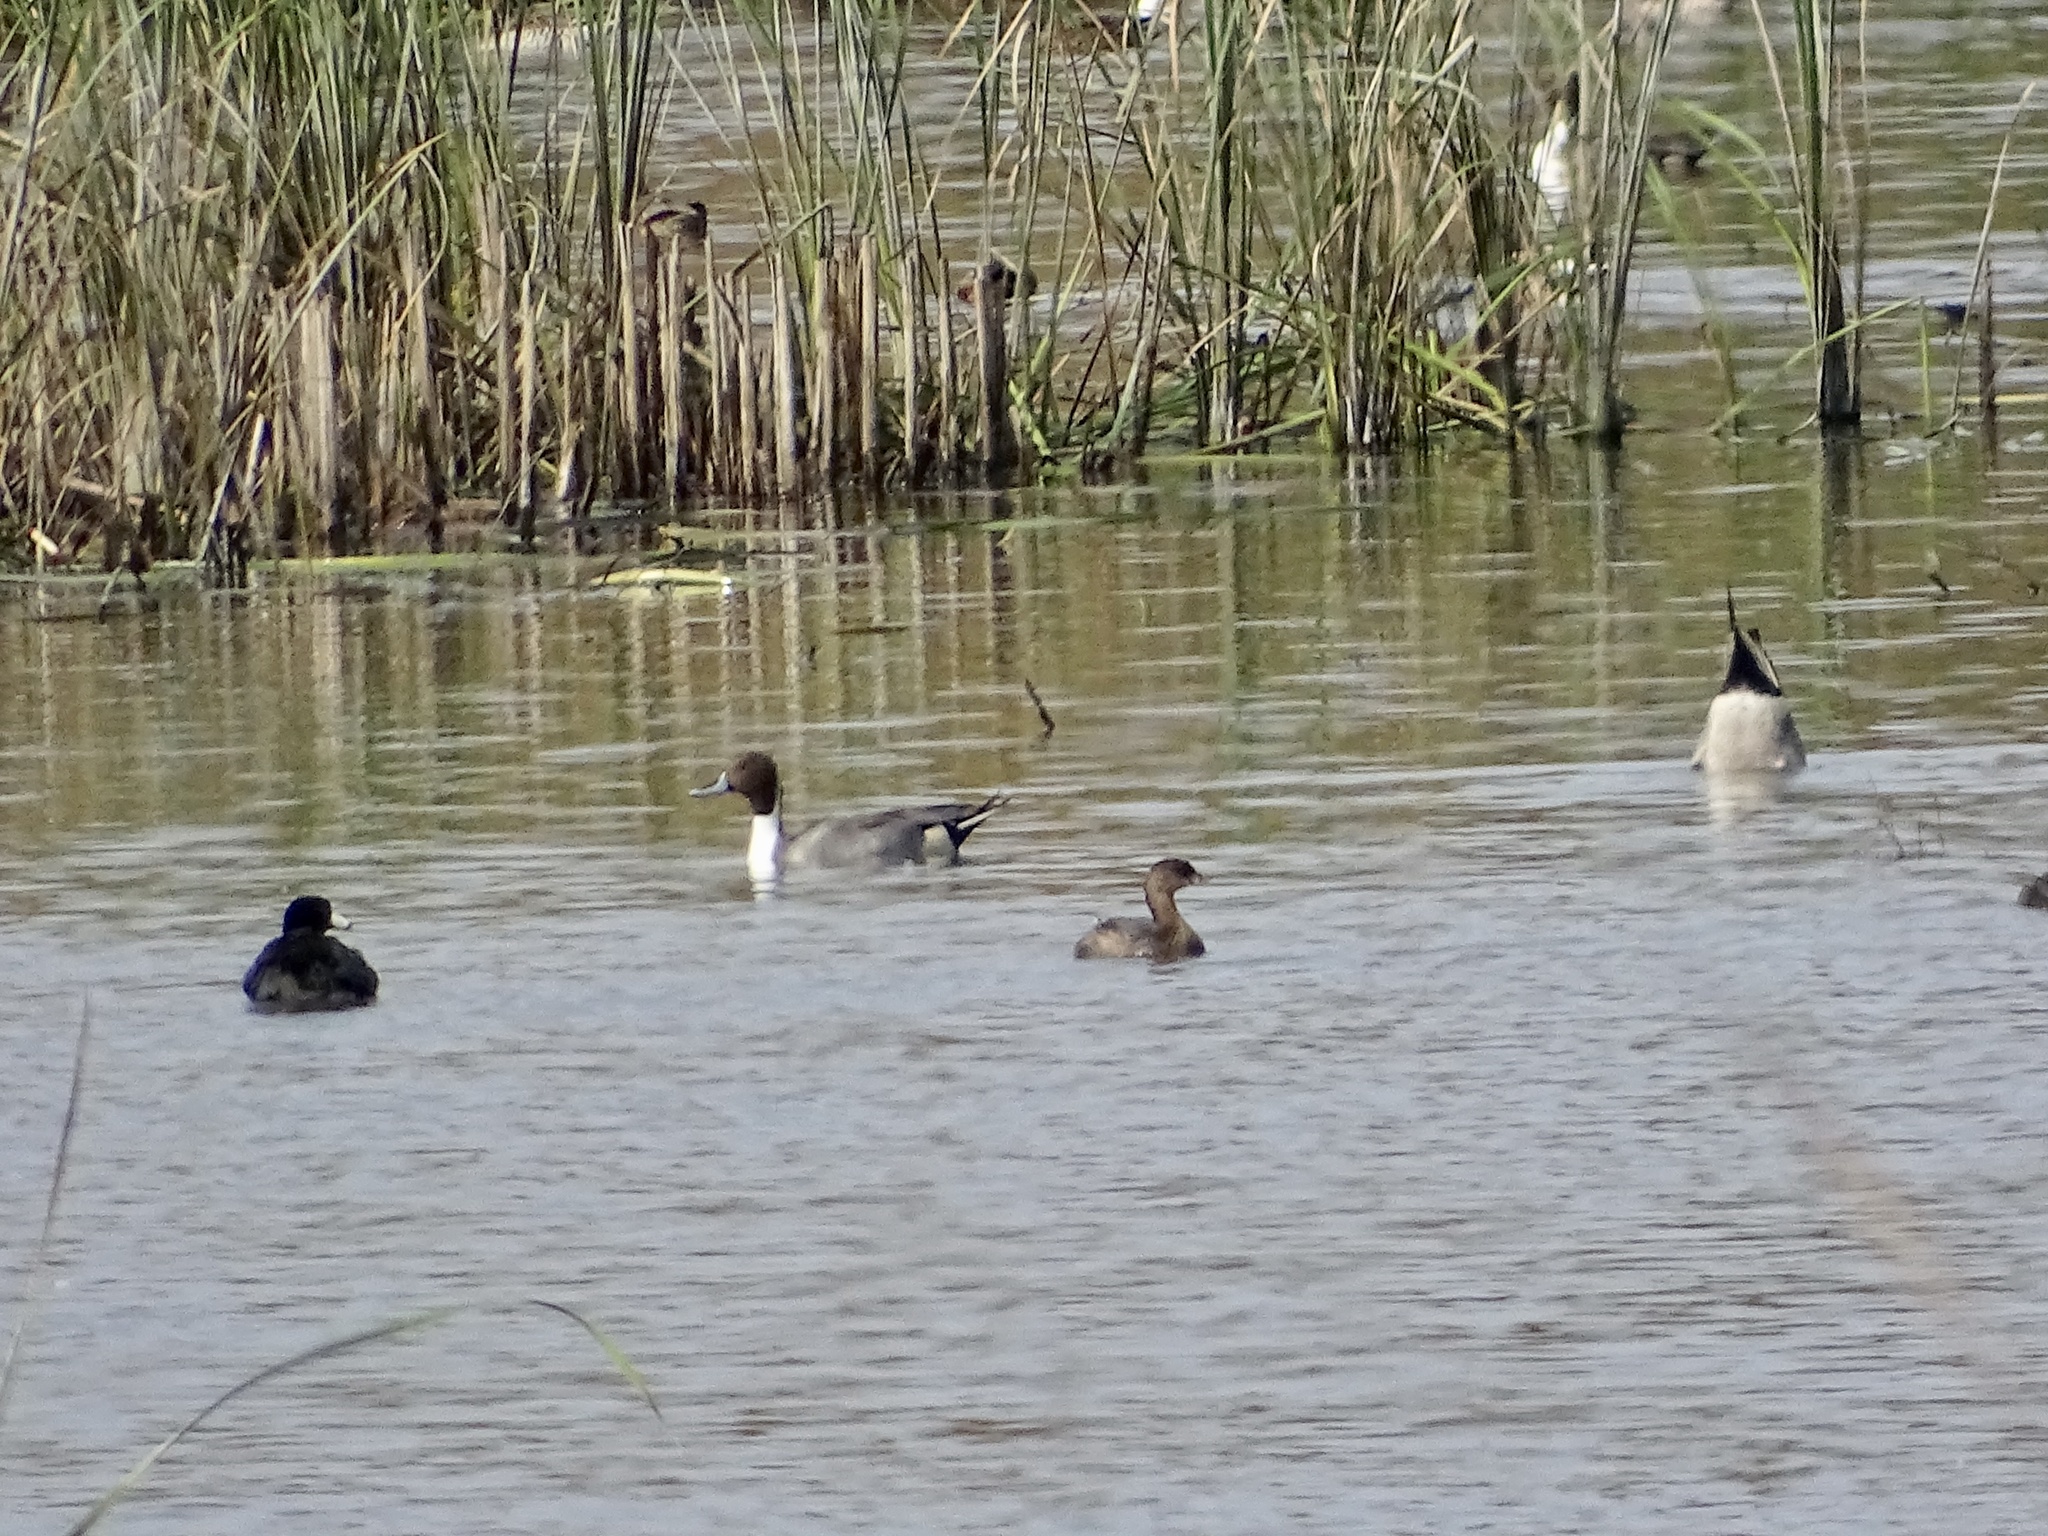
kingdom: Animalia
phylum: Chordata
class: Aves
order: Anseriformes
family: Anatidae
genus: Anas
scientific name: Anas acuta
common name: Northern pintail
